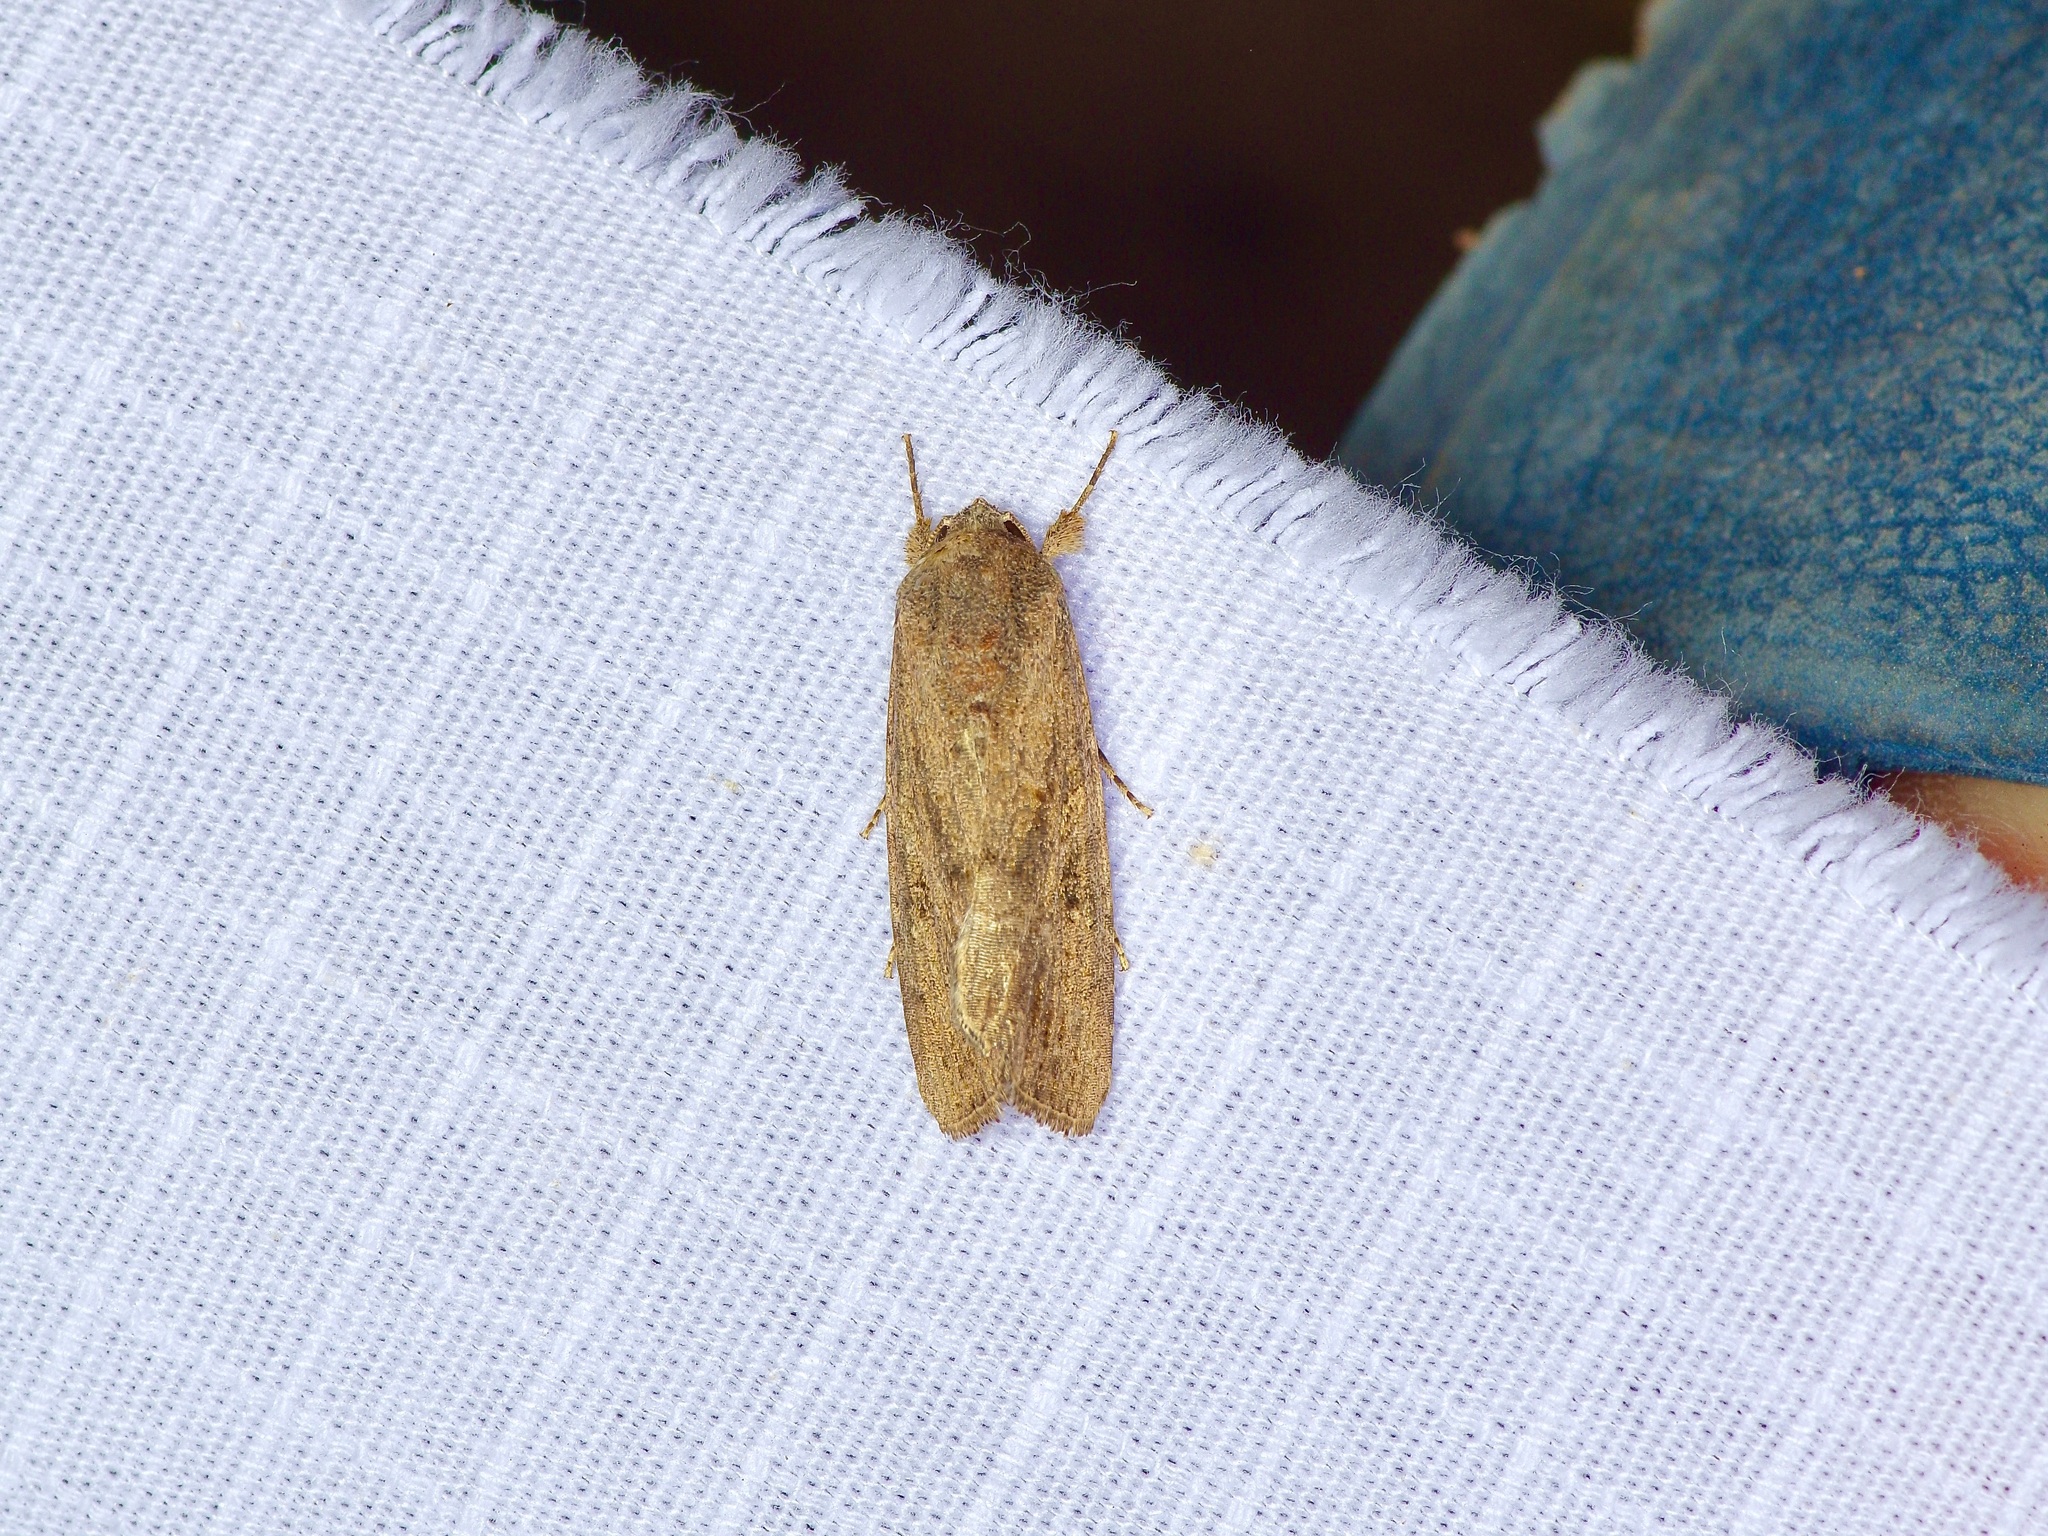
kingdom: Animalia
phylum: Arthropoda
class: Insecta
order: Lepidoptera
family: Noctuidae
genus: Spodoptera
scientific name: Spodoptera frugiperda
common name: Fall armyworm
